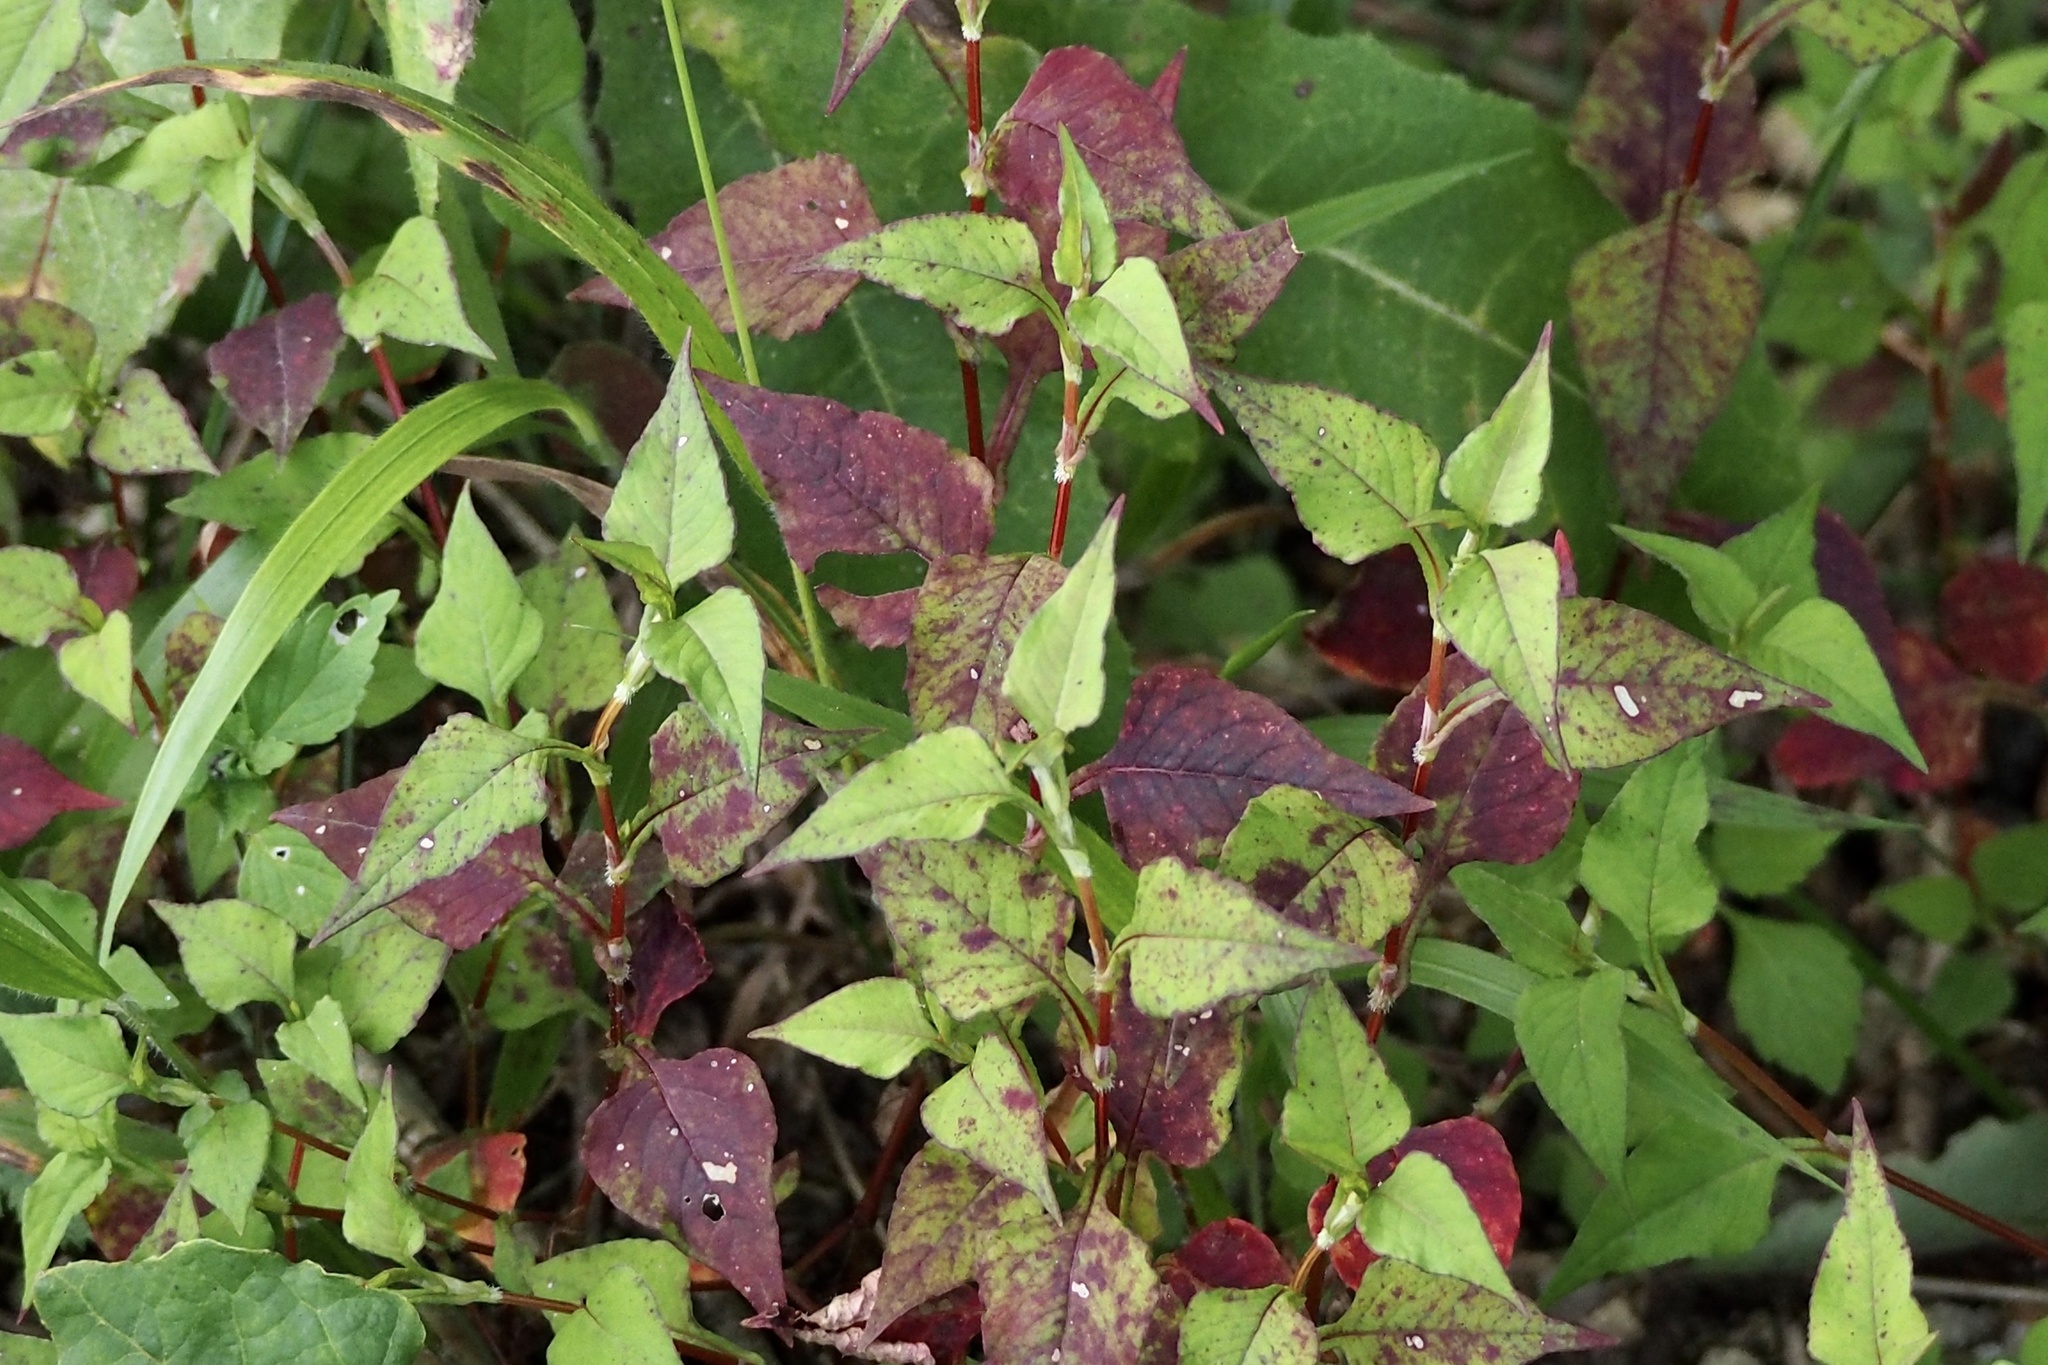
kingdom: Plantae
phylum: Tracheophyta
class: Magnoliopsida
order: Caryophyllales
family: Polygonaceae
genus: Persicaria
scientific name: Persicaria nepalensis
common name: Nepal persicaria
